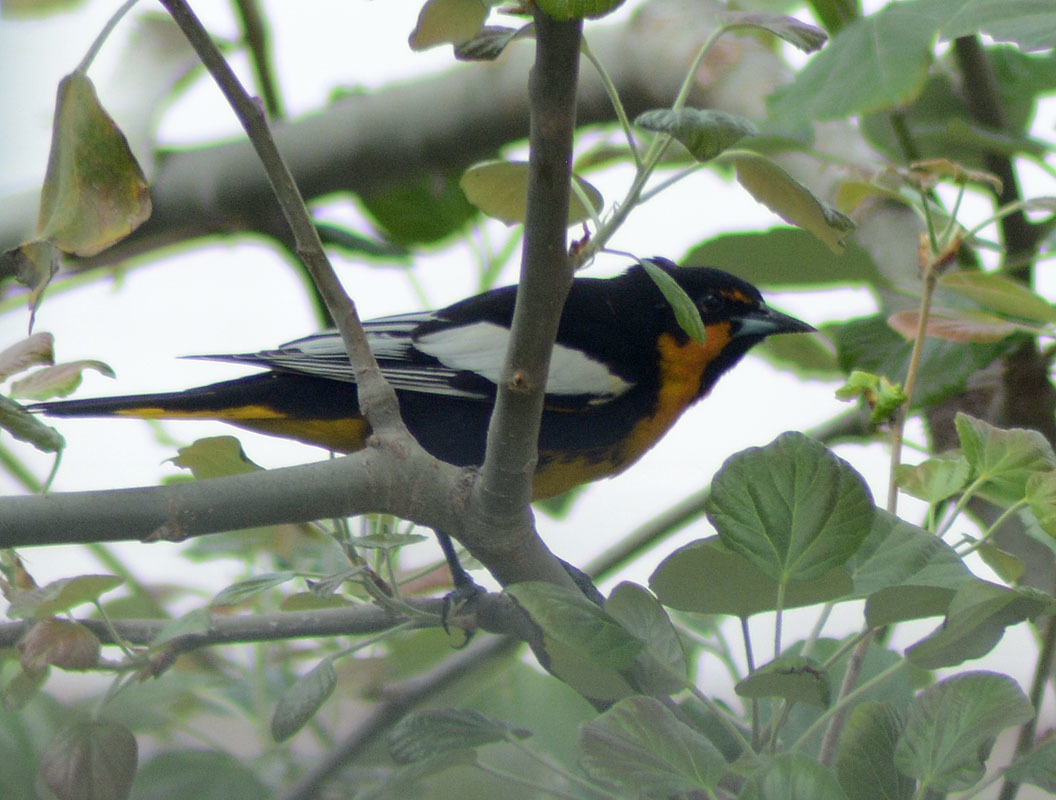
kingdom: Animalia
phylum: Chordata
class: Aves
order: Passeriformes
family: Icteridae
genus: Icterus
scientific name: Icterus abeillei
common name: Black-backed oriole
